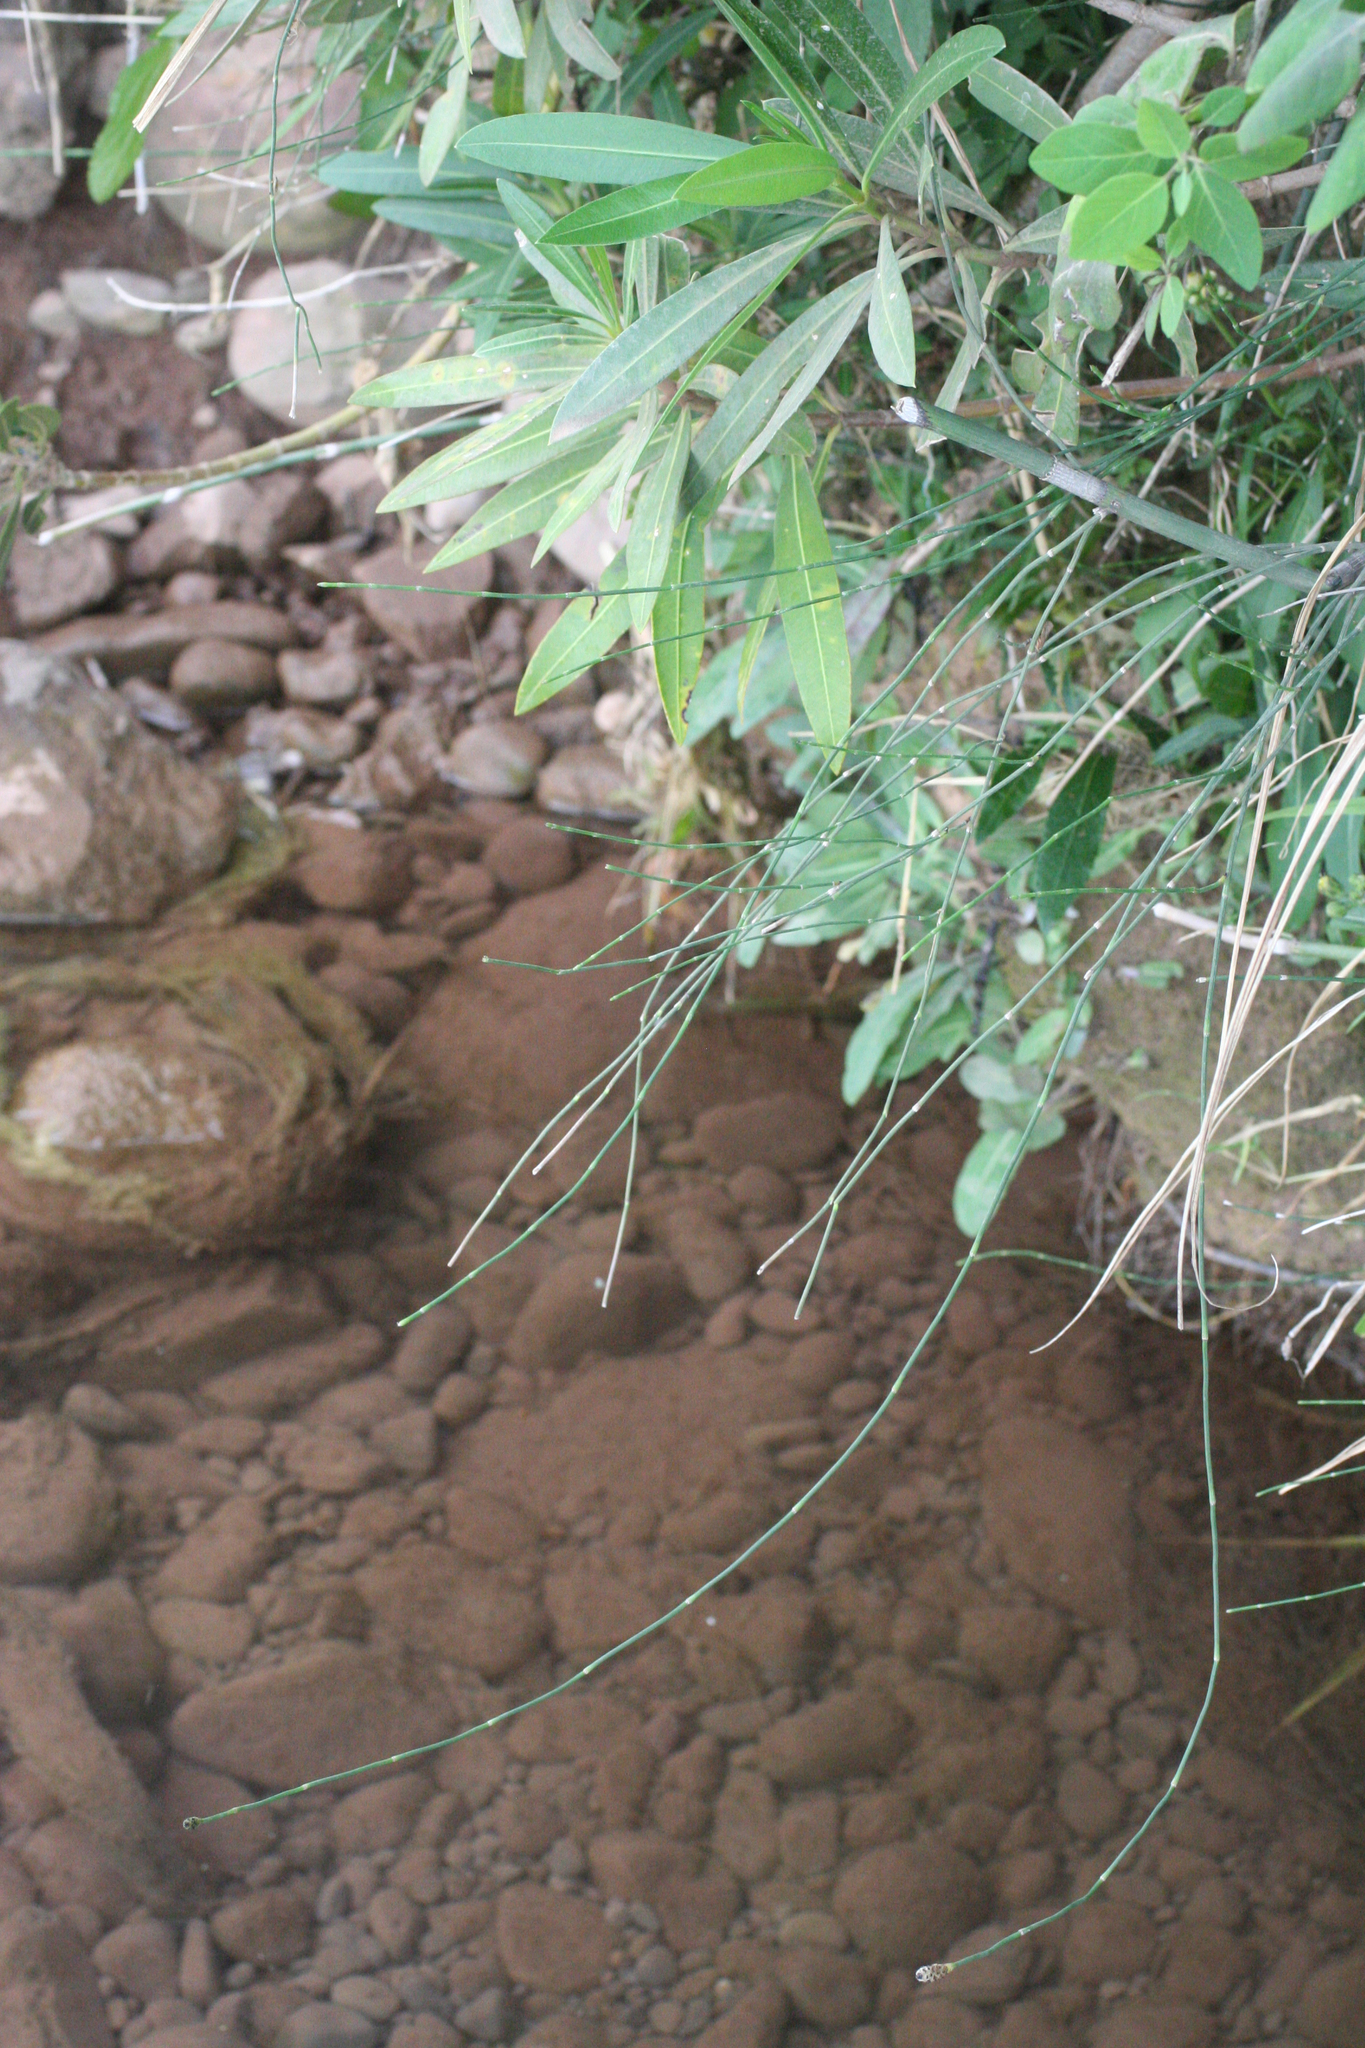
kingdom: Plantae
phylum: Tracheophyta
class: Polypodiopsida
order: Equisetales
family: Equisetaceae
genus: Equisetum
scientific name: Equisetum ramosissimum
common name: Branched horsetail
